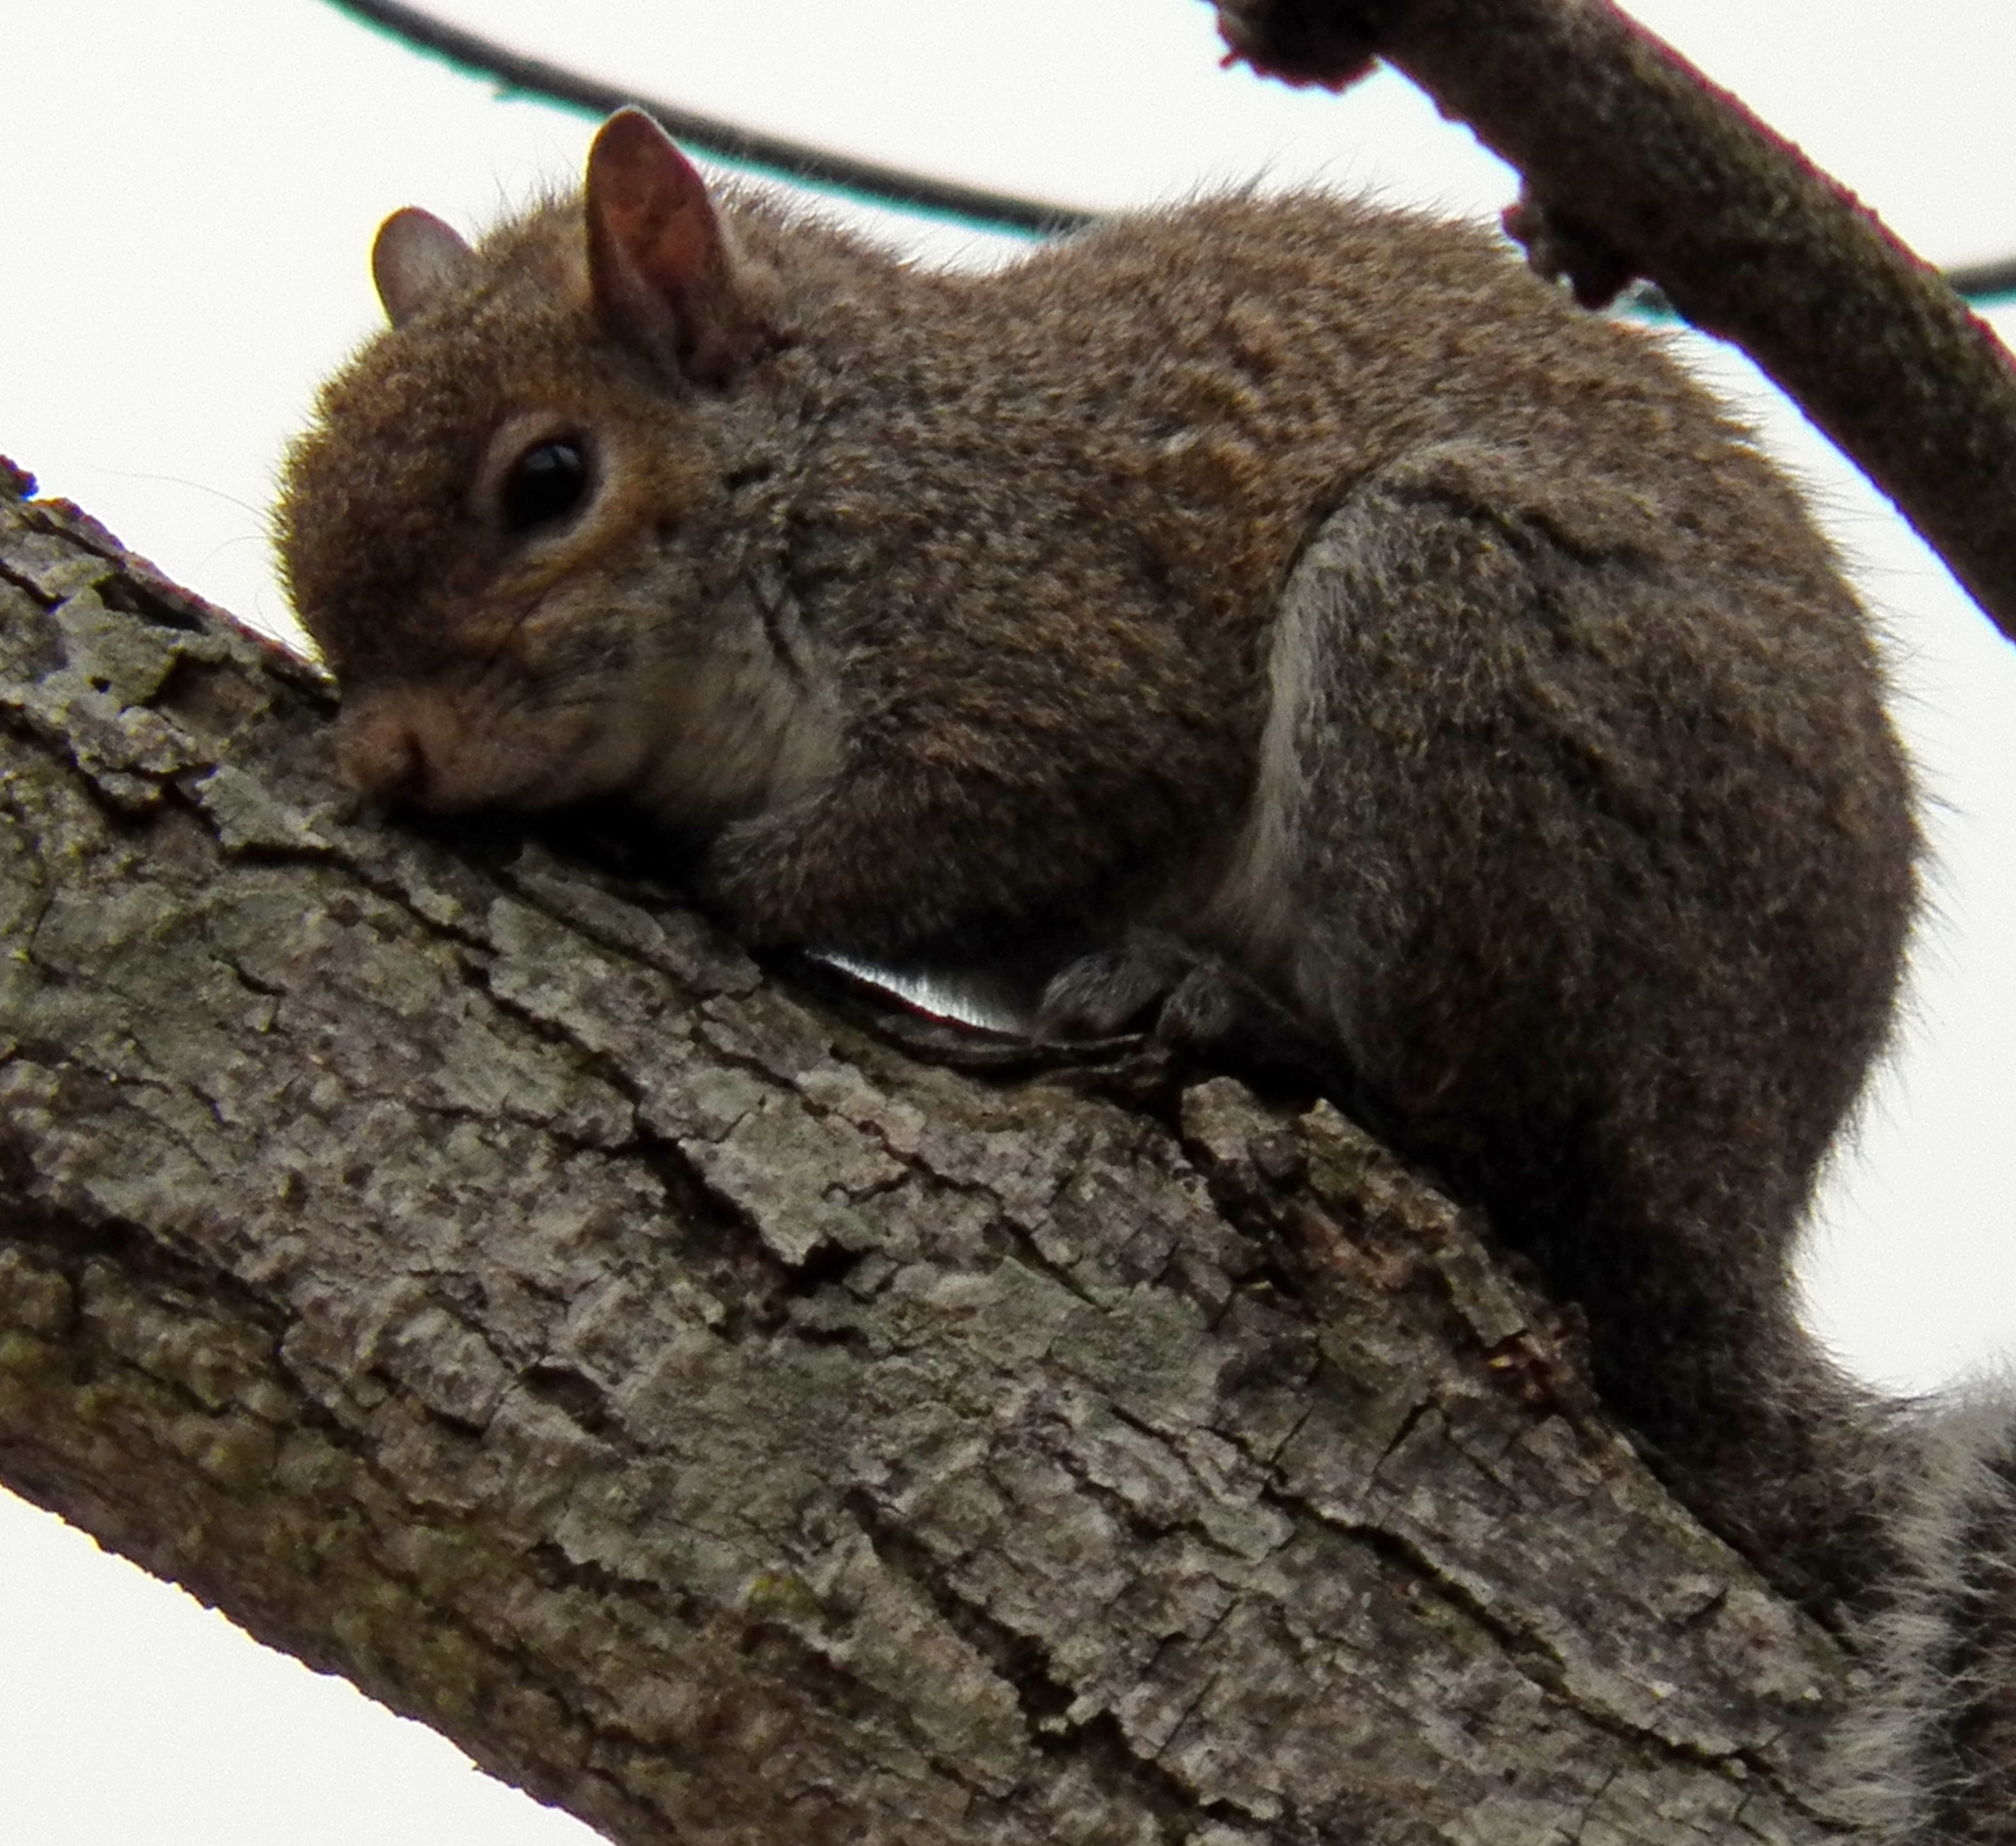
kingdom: Animalia
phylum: Chordata
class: Mammalia
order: Rodentia
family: Sciuridae
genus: Sciurus
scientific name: Sciurus carolinensis
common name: Eastern gray squirrel
